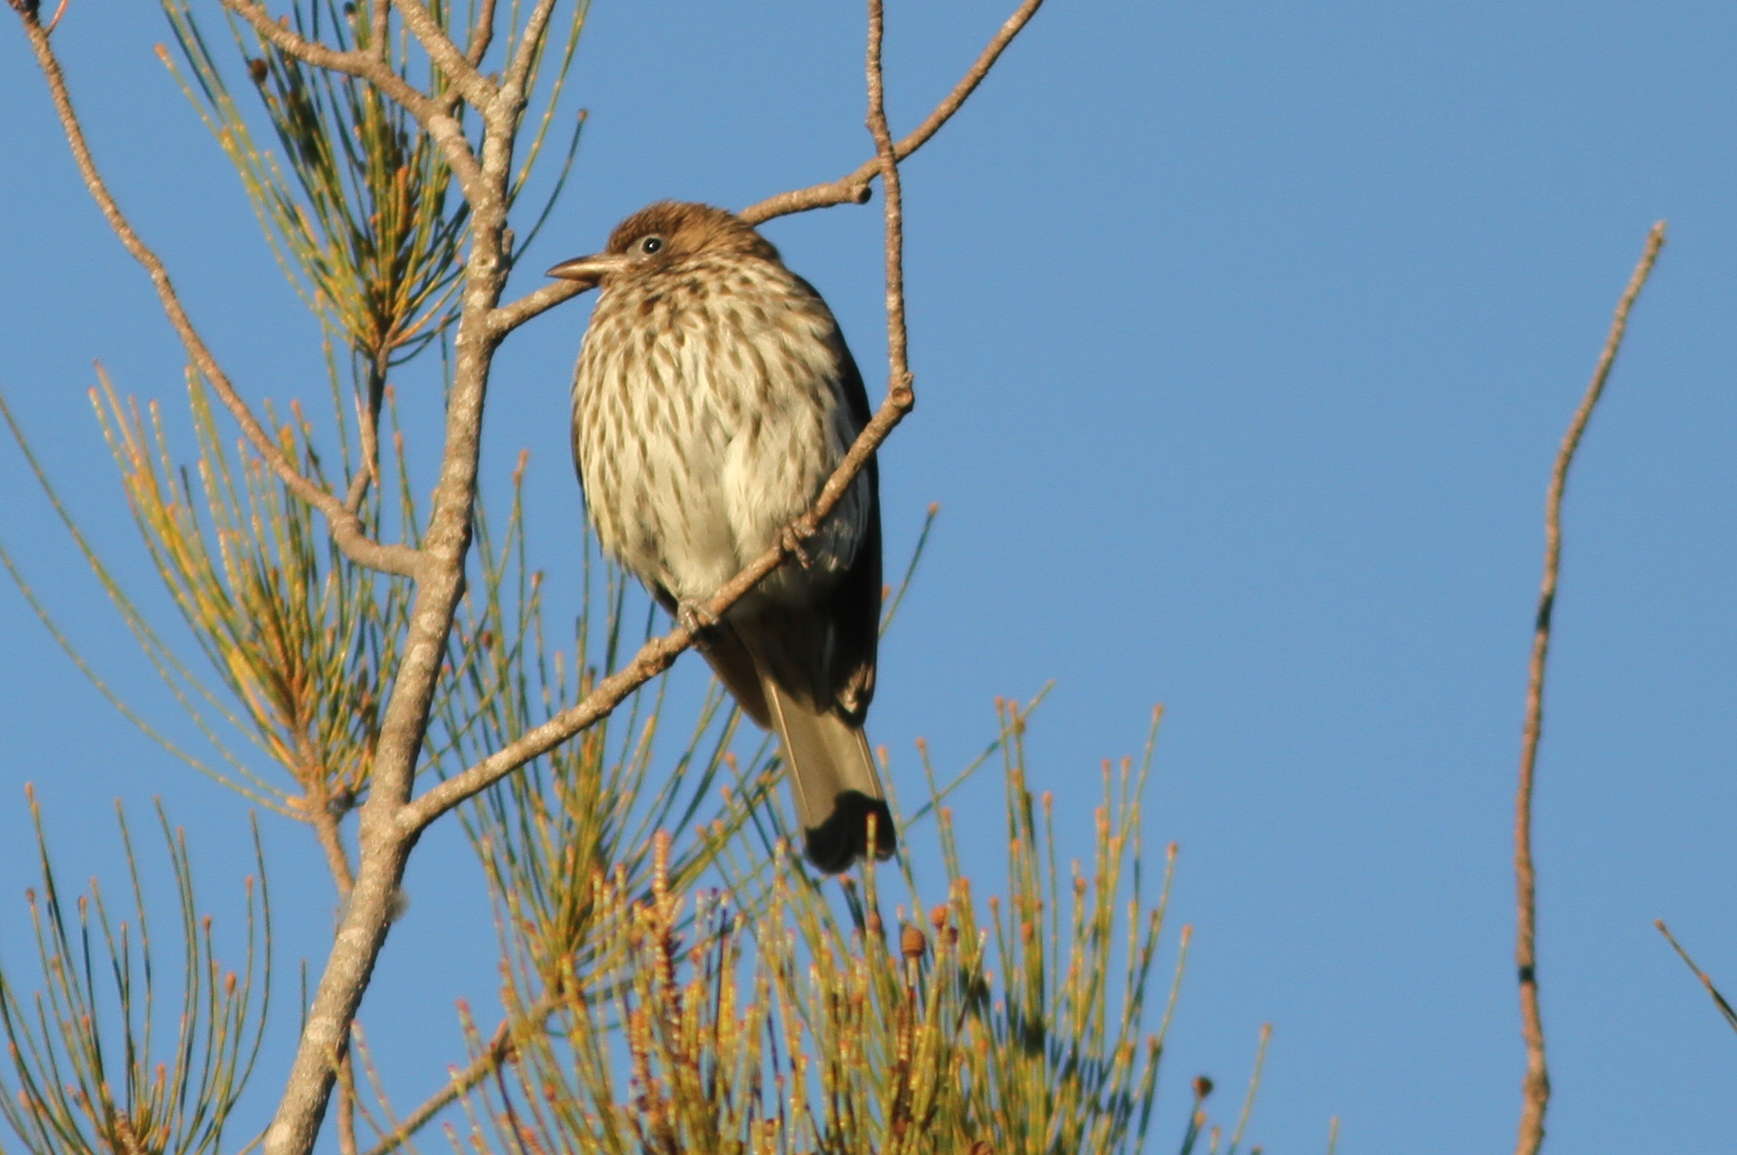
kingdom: Animalia
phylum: Chordata
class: Aves
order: Passeriformes
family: Oriolidae
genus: Sphecotheres
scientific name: Sphecotheres vieilloti
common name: Australasian figbird
